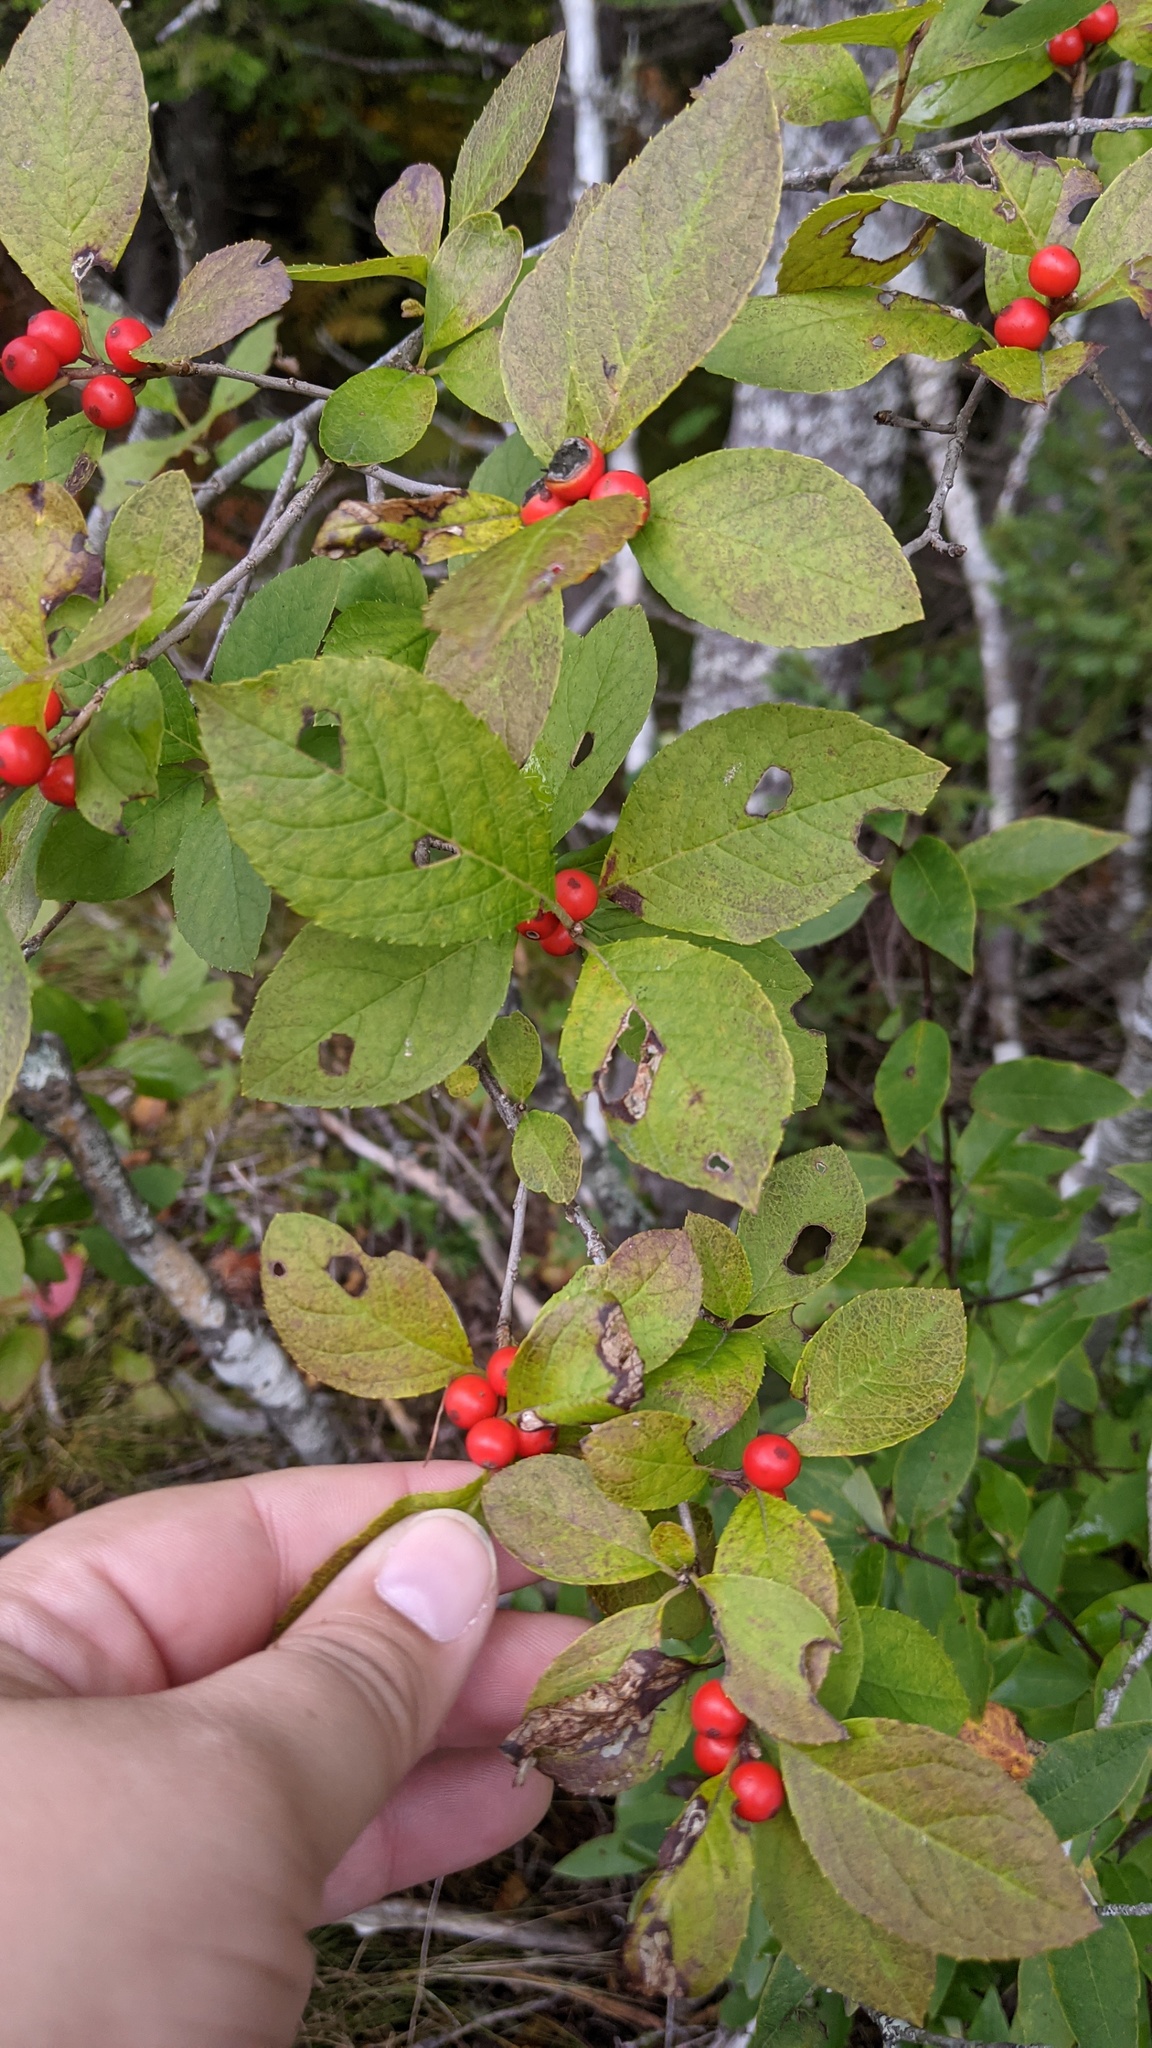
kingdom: Plantae
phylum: Tracheophyta
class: Magnoliopsida
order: Aquifoliales
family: Aquifoliaceae
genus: Ilex
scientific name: Ilex verticillata
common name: Virginia winterberry
